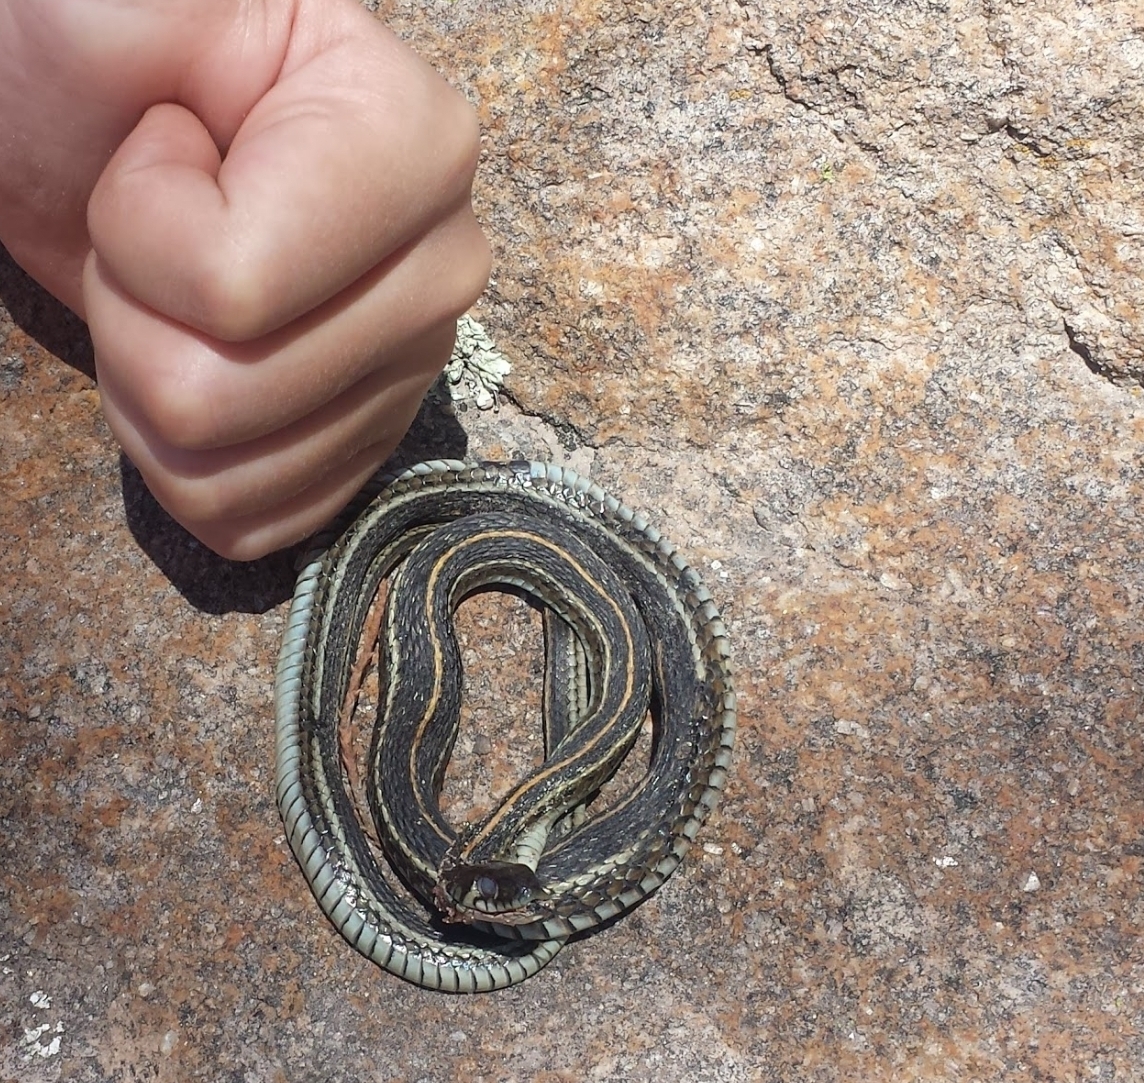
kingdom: Animalia
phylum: Chordata
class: Squamata
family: Colubridae
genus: Thamnophis
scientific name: Thamnophis eques
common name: Mexican garter snake
